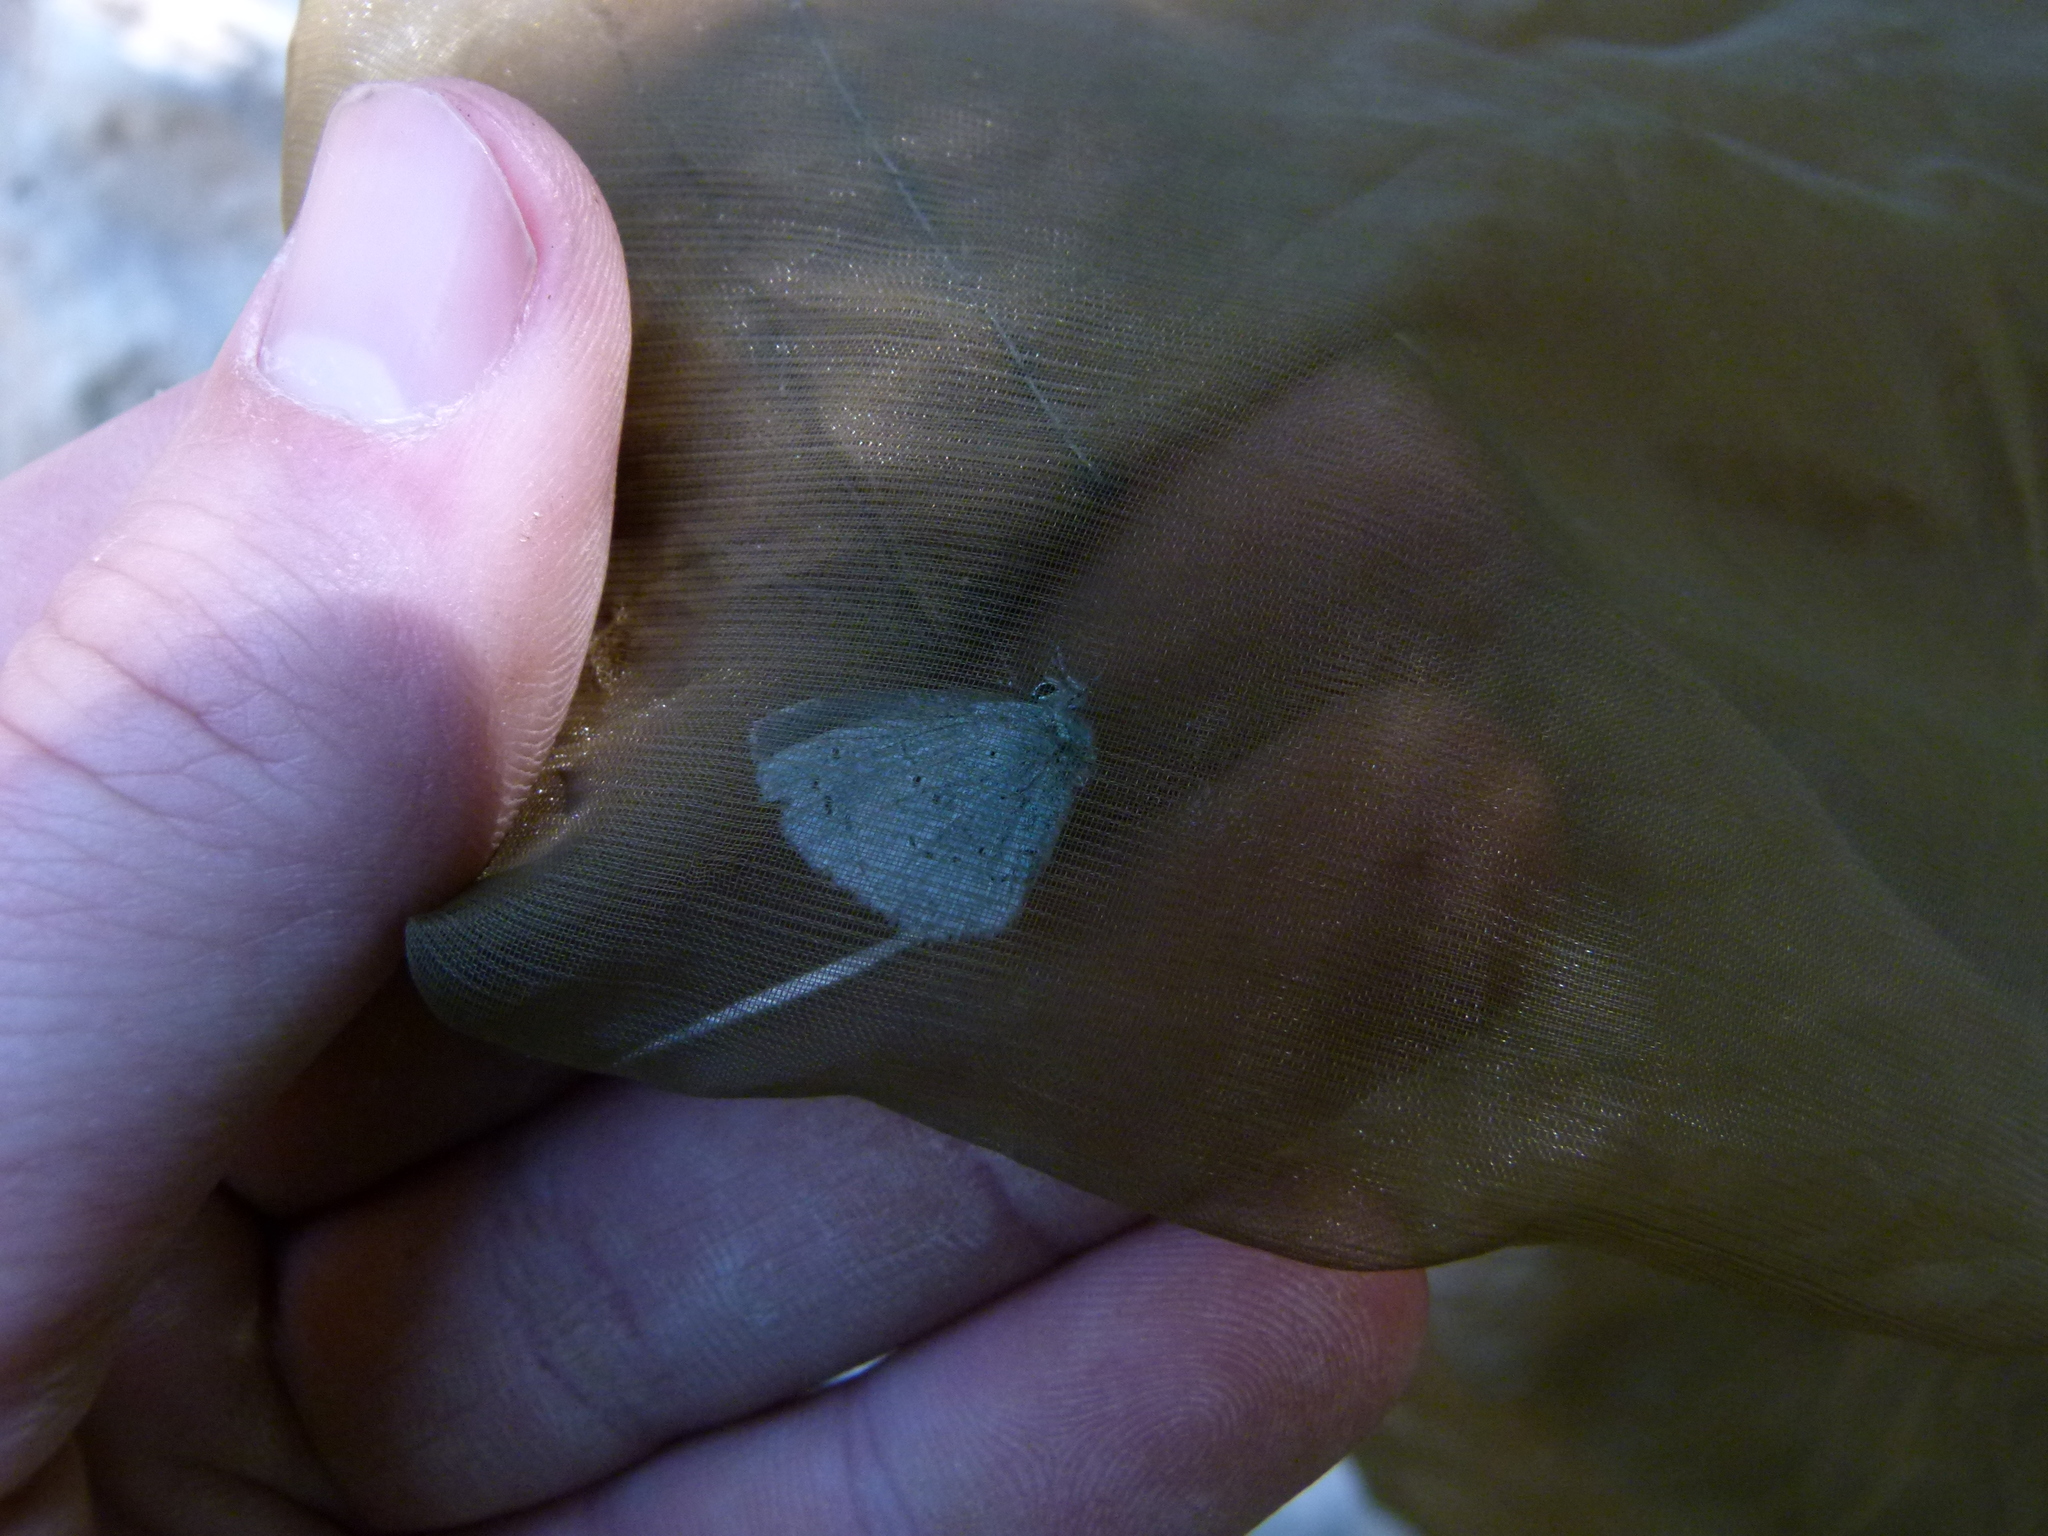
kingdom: Animalia
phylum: Arthropoda
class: Insecta
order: Lepidoptera
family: Lycaenidae
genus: Celastrina
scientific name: Celastrina argiolus
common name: Holly blue
